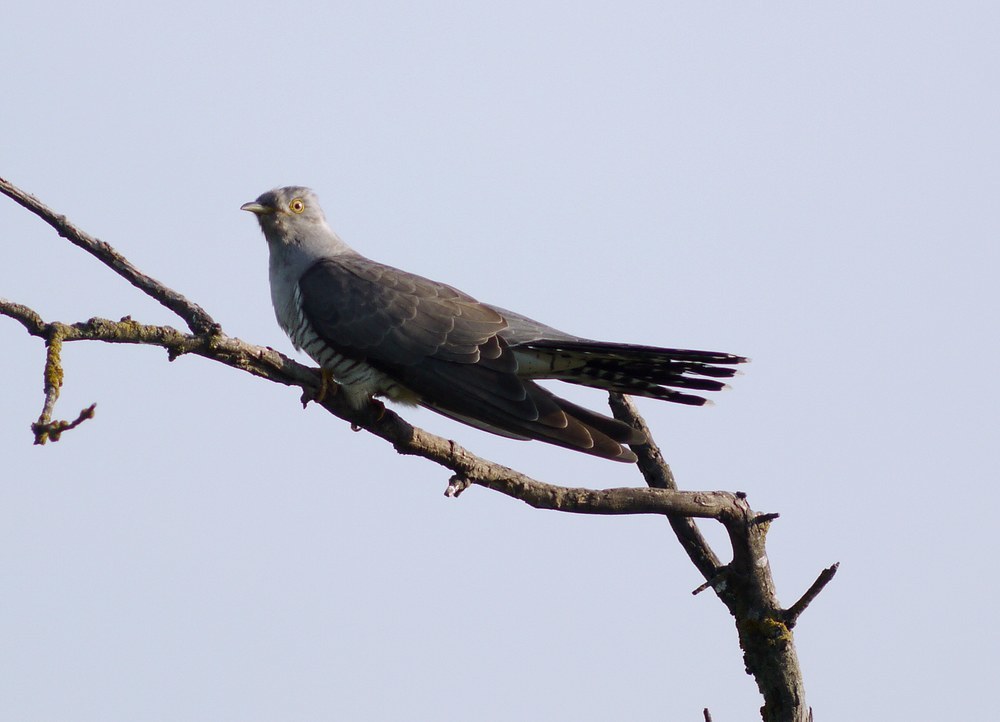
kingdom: Animalia
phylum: Chordata
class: Aves
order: Cuculiformes
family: Cuculidae
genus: Cuculus
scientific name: Cuculus canorus
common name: Common cuckoo
